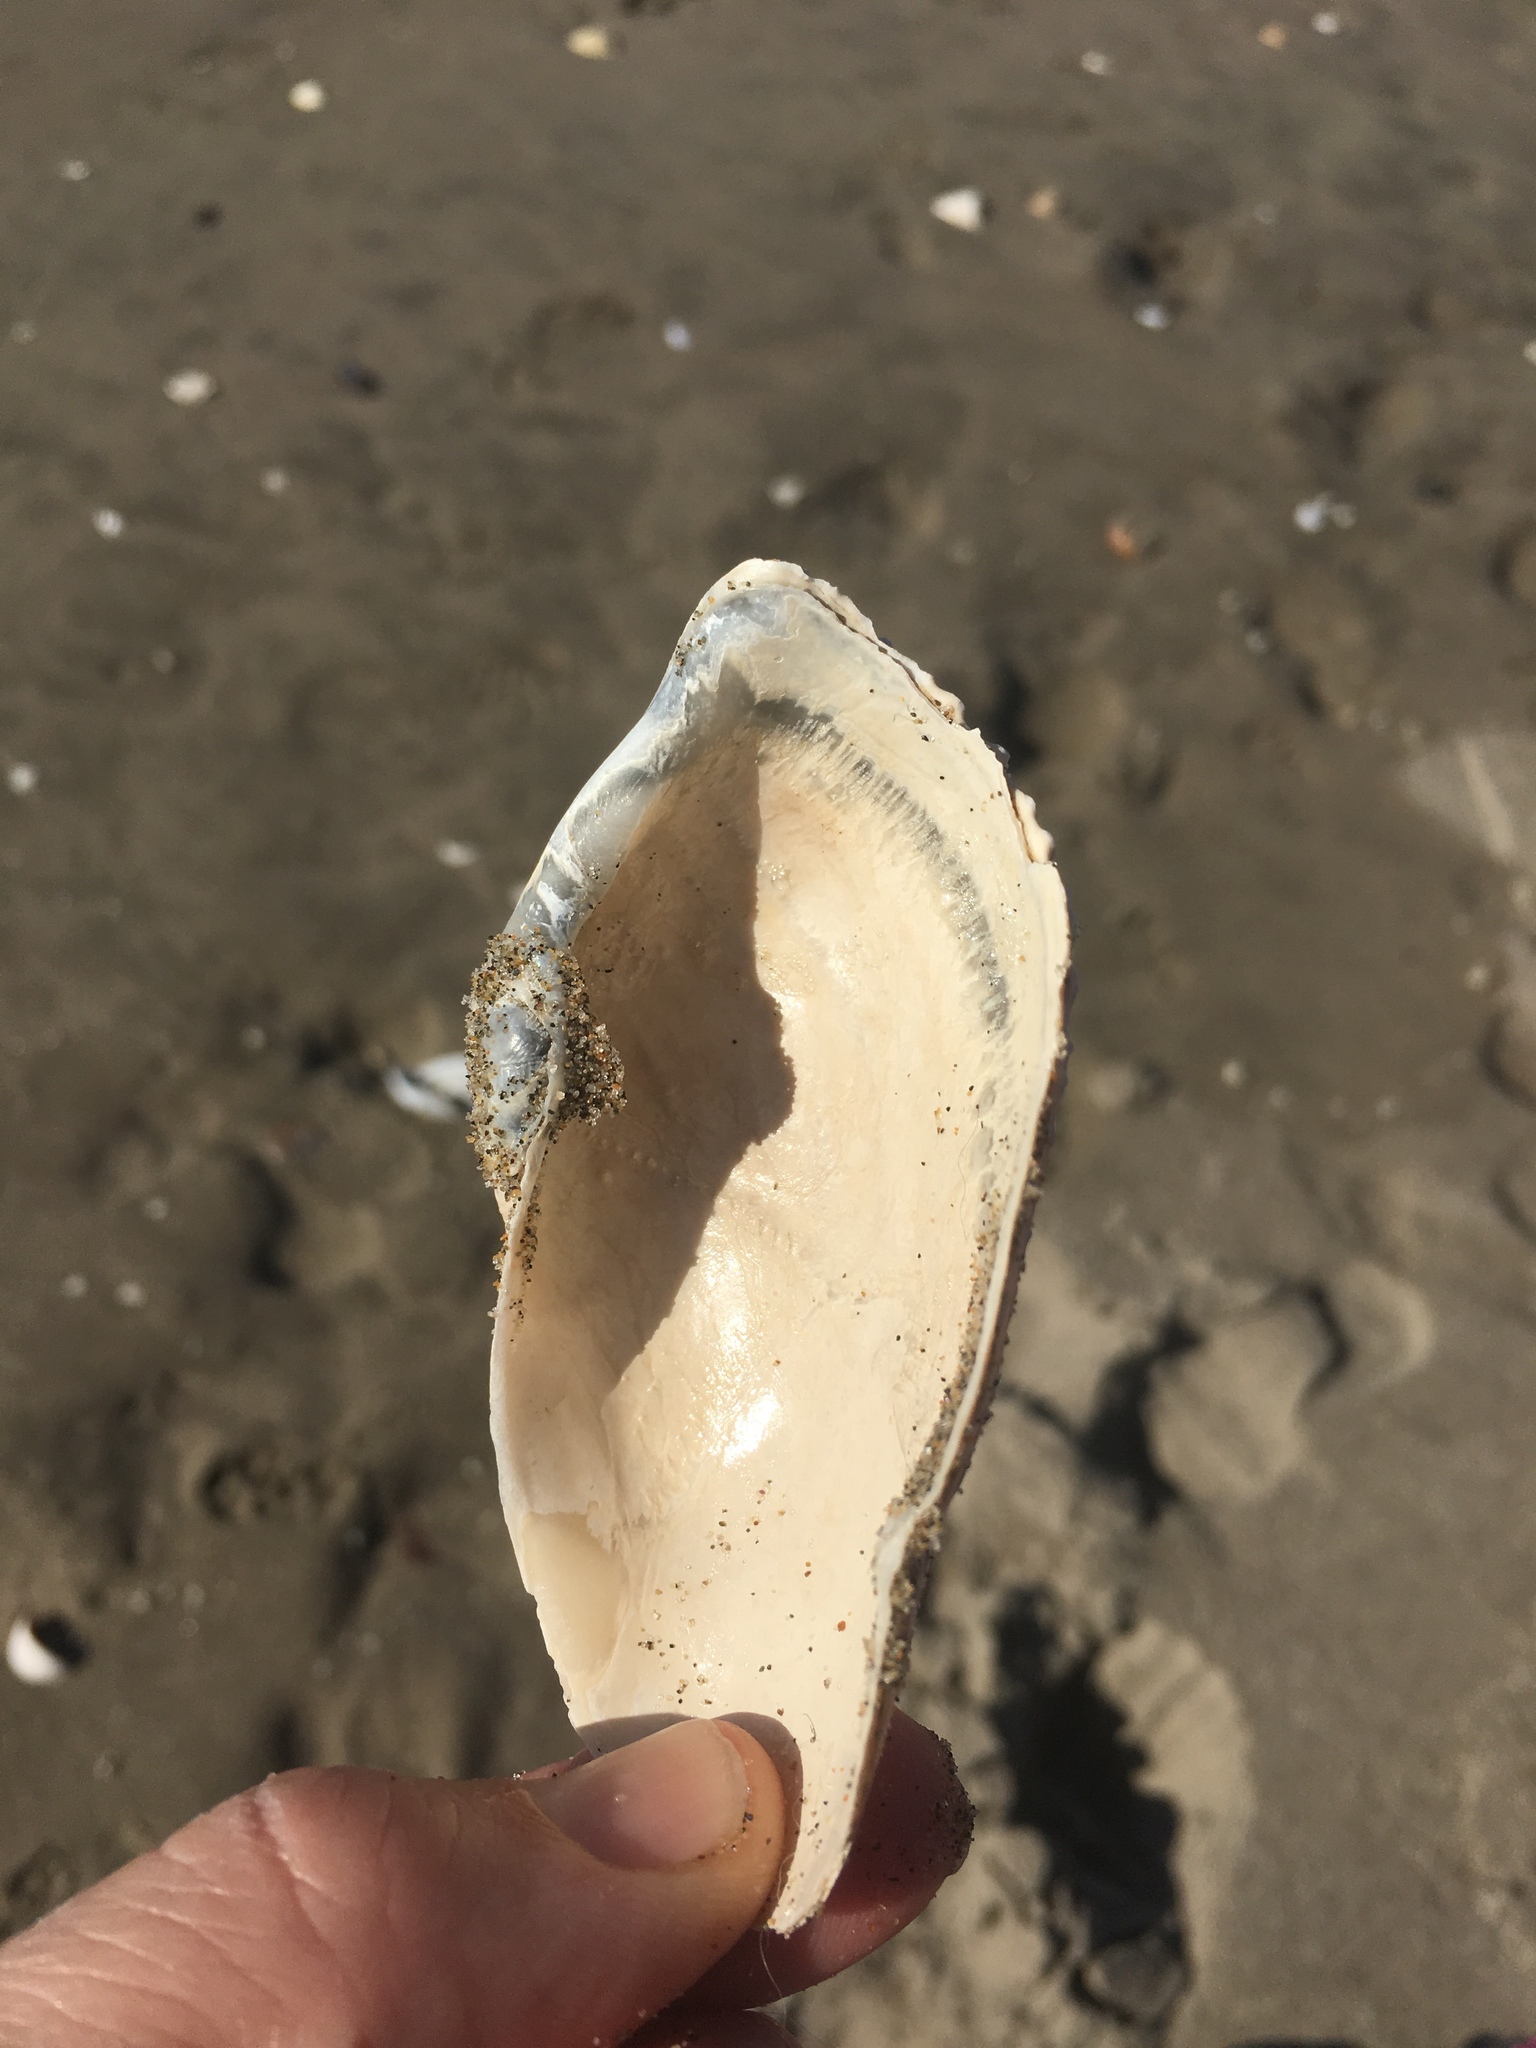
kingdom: Animalia
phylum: Mollusca
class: Bivalvia
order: Myida
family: Pholadidae
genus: Zirfaea
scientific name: Zirfaea pilsbryi
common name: Rough piddock
